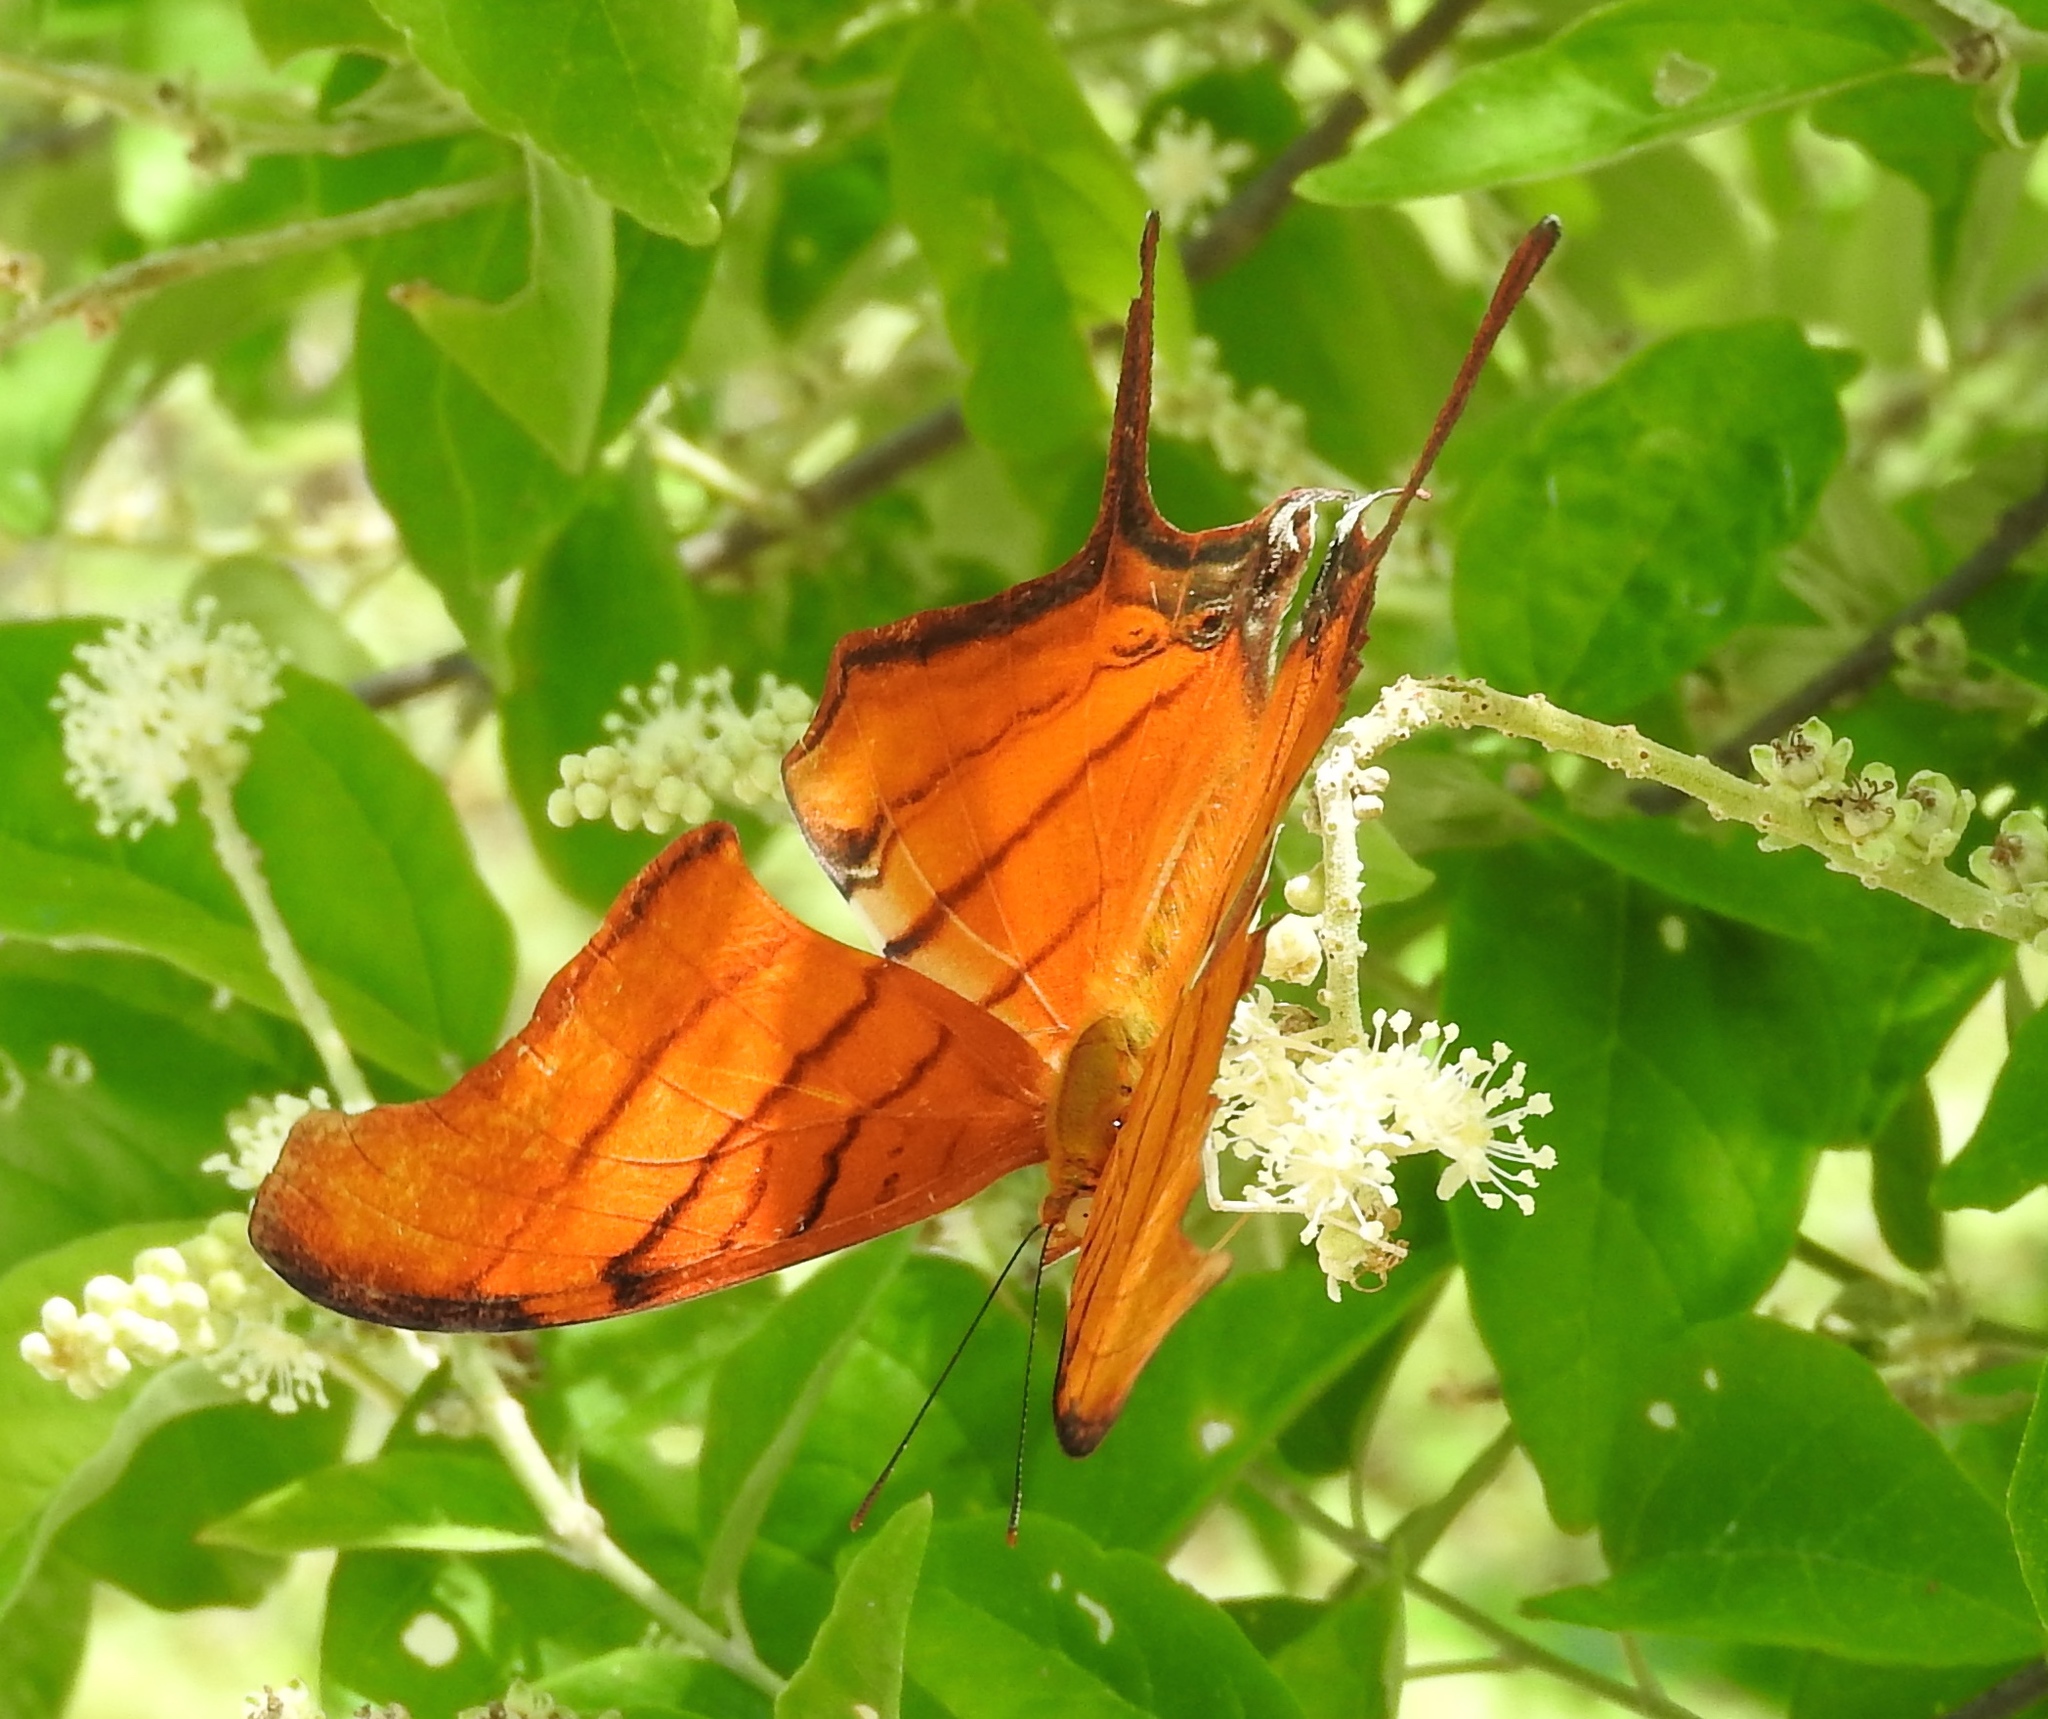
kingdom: Animalia
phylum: Arthropoda
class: Insecta
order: Lepidoptera
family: Nymphalidae
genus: Marpesia
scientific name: Marpesia petreus
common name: Red dagger wing
